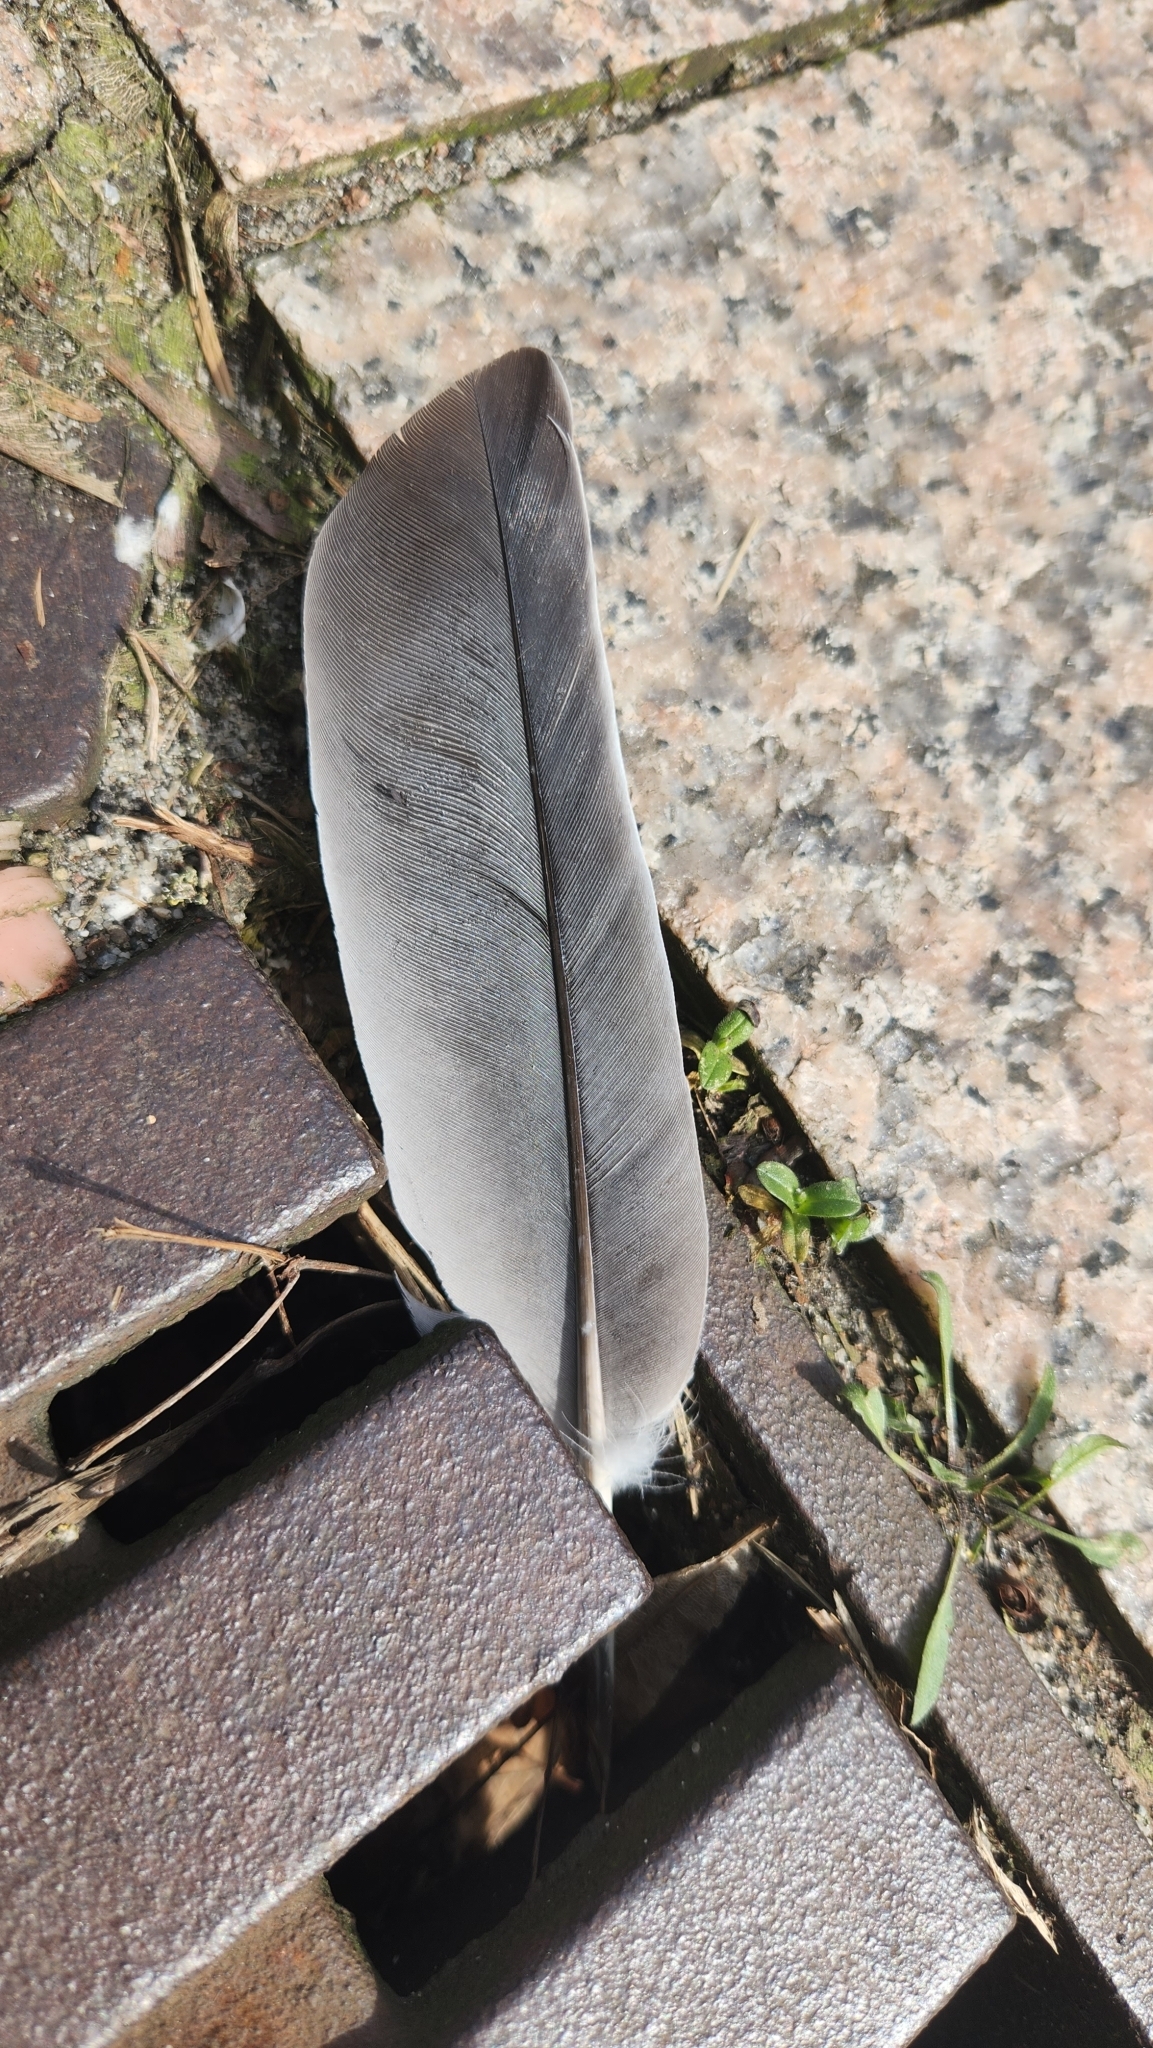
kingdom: Animalia
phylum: Chordata
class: Aves
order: Columbiformes
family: Columbidae
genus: Columba
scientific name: Columba palumbus
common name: Common wood pigeon
